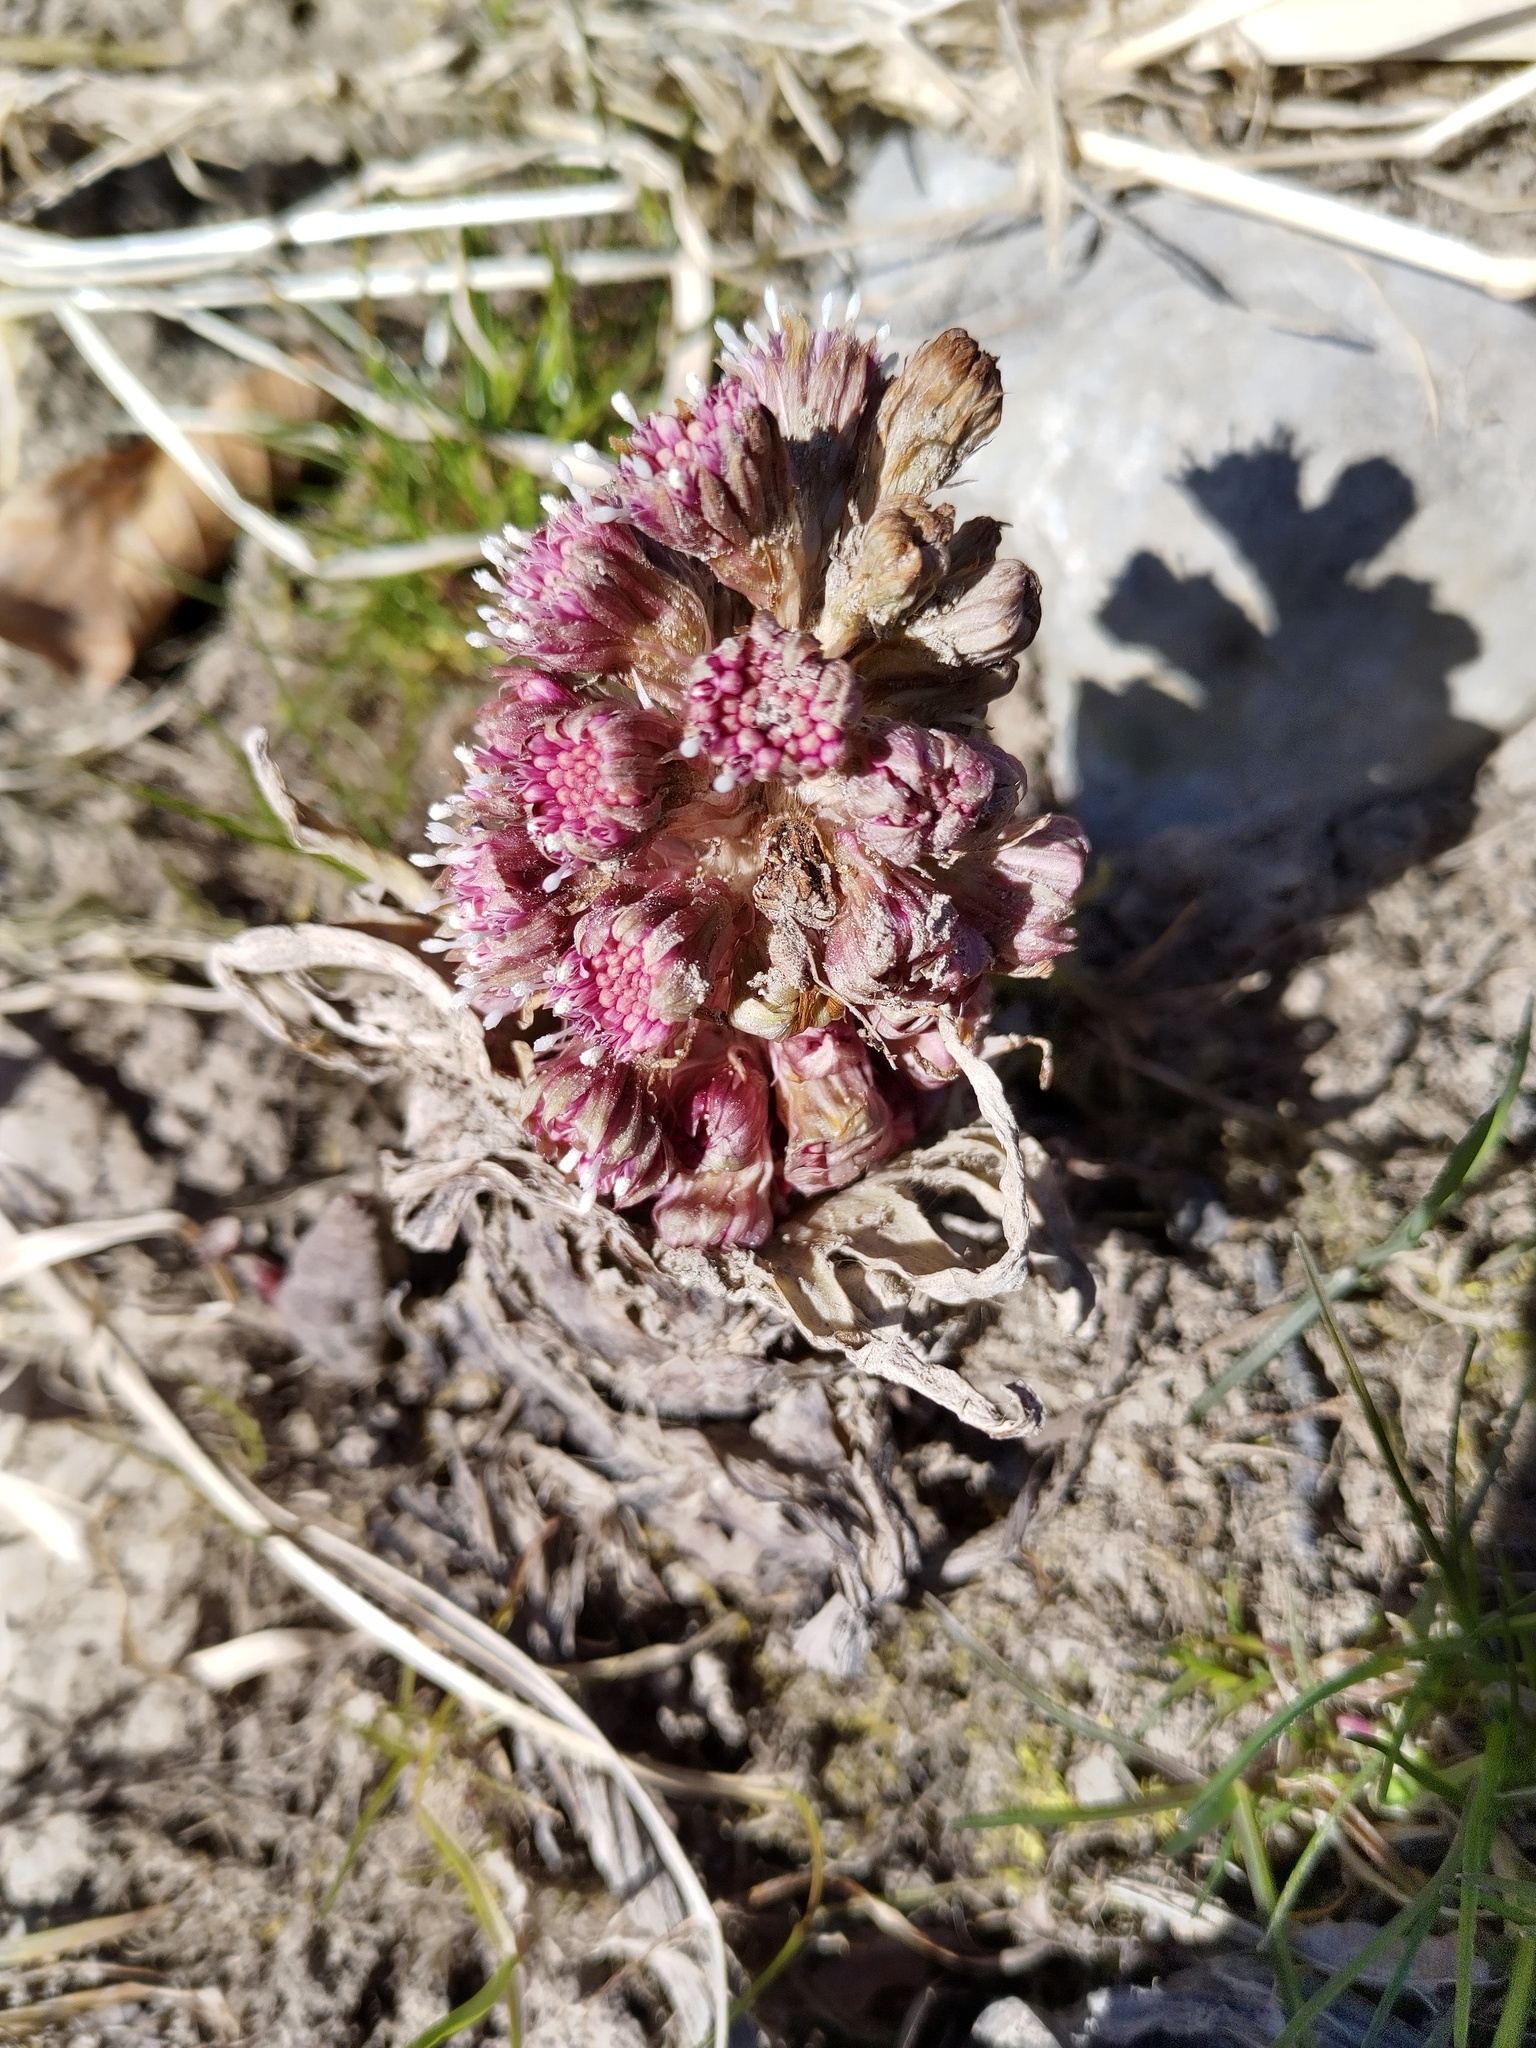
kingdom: Plantae
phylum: Tracheophyta
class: Magnoliopsida
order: Asterales
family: Asteraceae
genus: Petasites
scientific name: Petasites hybridus
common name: Butterbur
